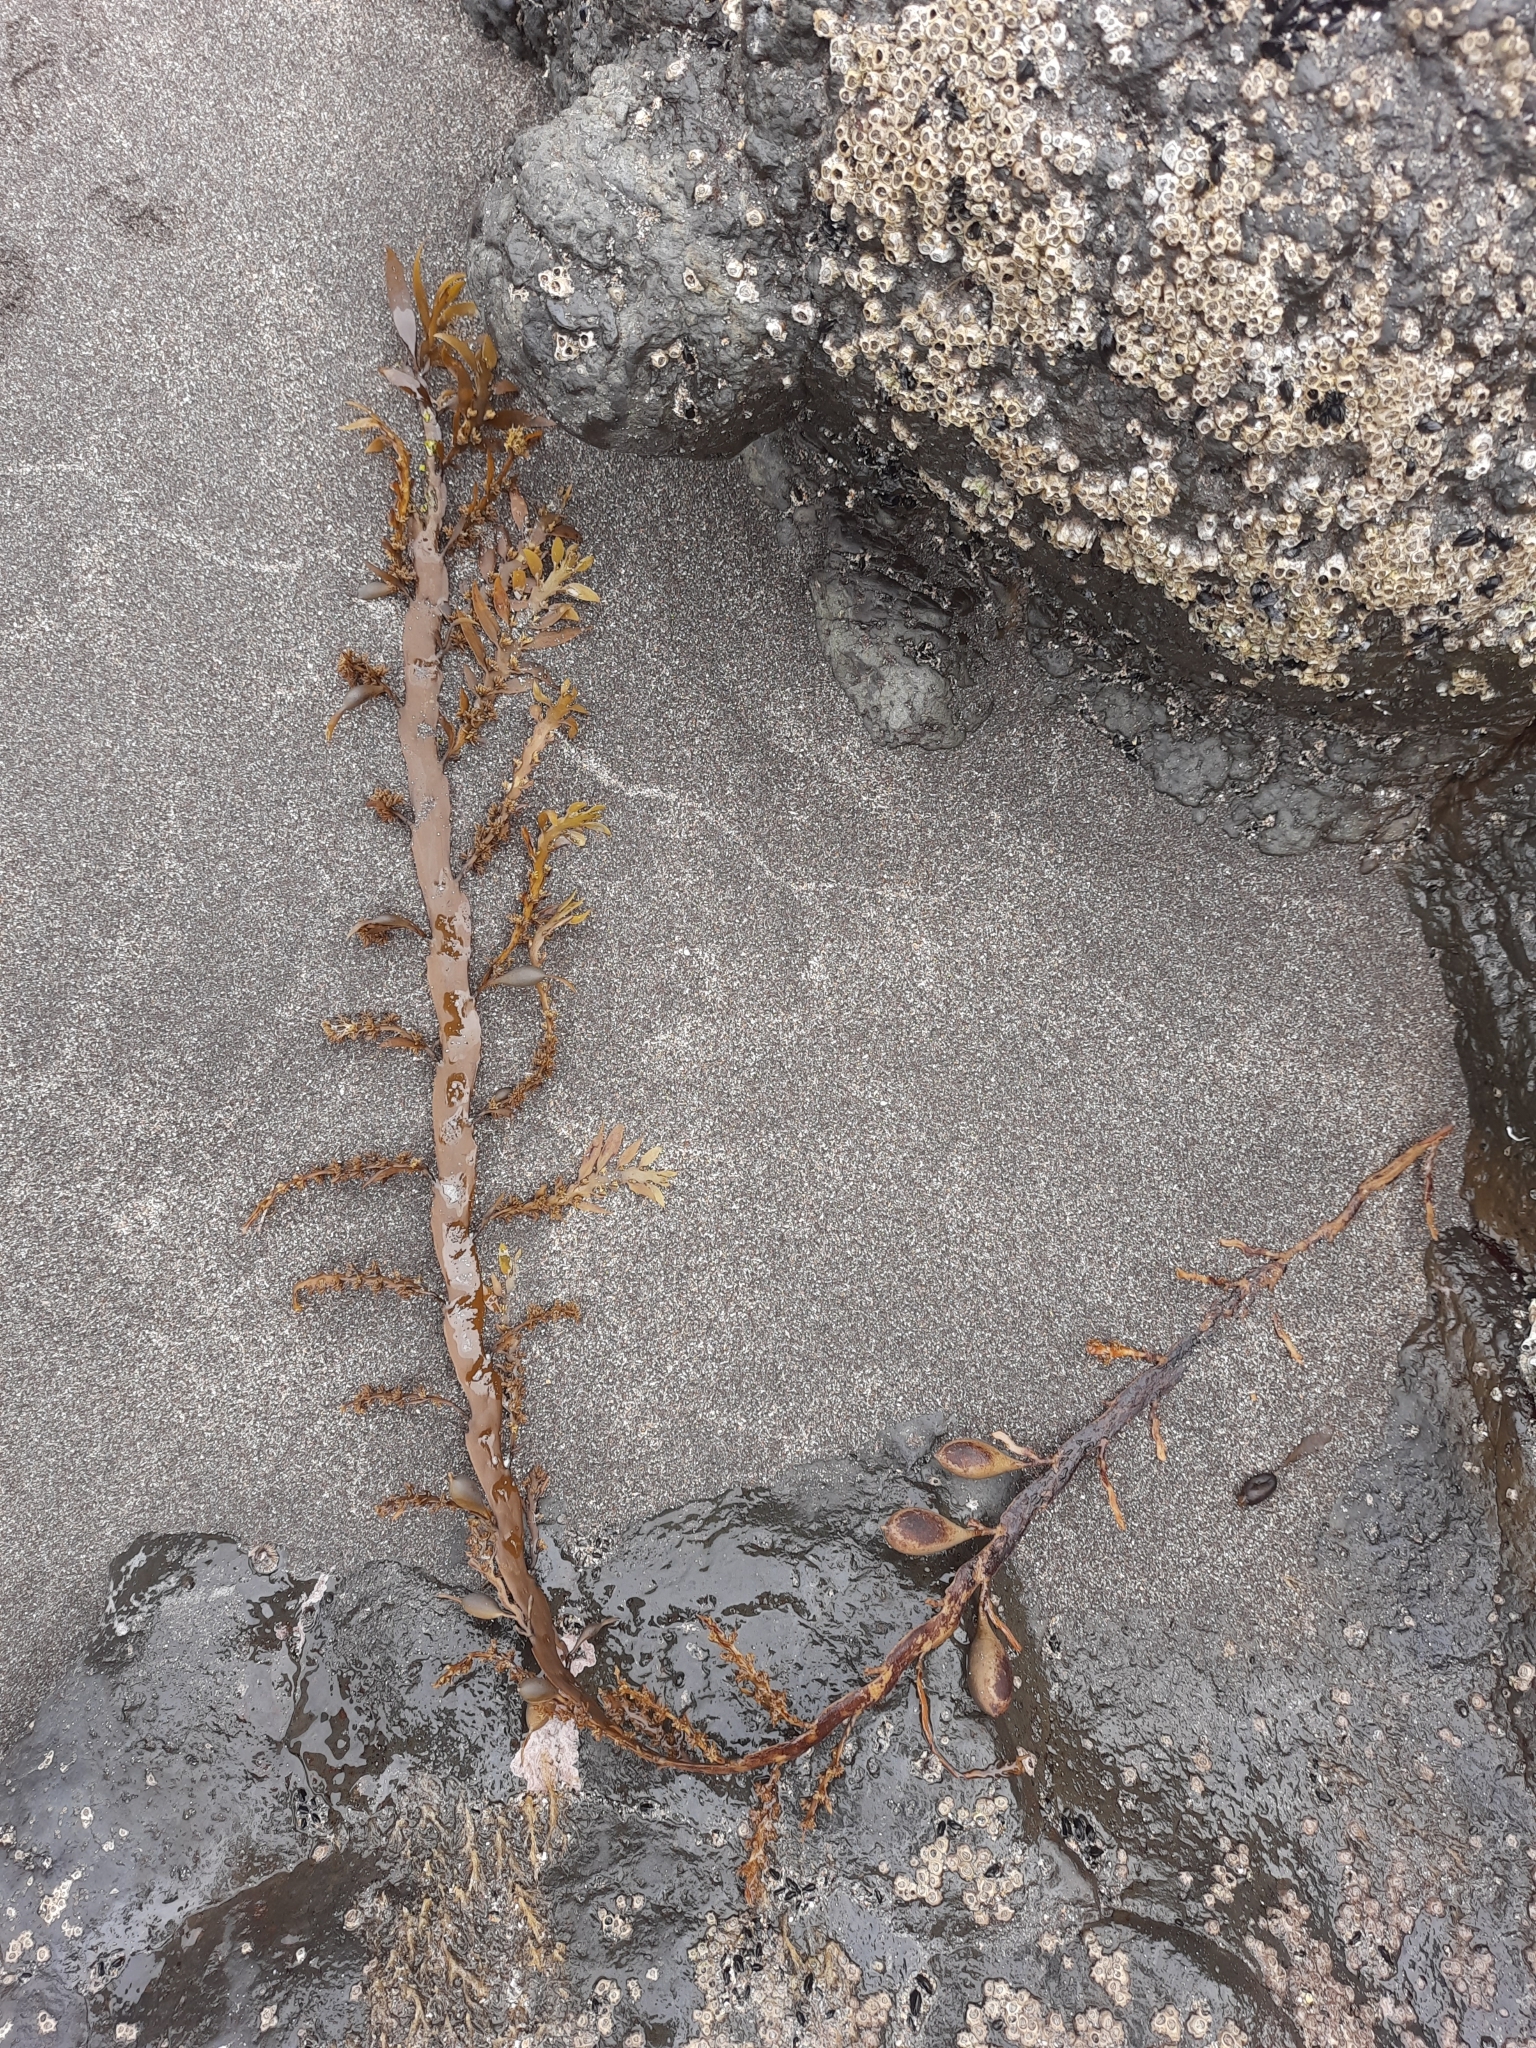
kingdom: Chromista
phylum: Ochrophyta
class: Phaeophyceae
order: Fucales
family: Sargassaceae
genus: Carpophyllum
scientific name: Carpophyllum maschalocarpum
